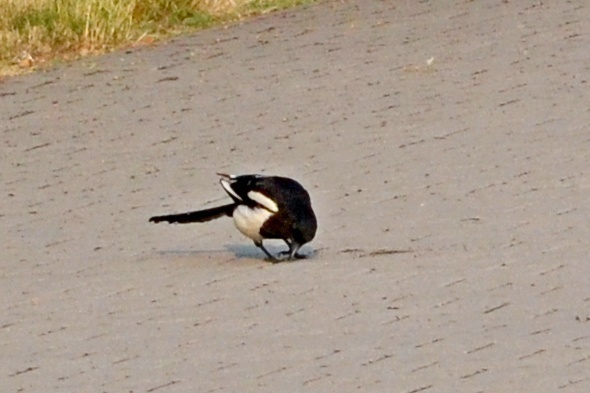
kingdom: Animalia
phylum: Chordata
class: Aves
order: Passeriformes
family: Corvidae
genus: Pica
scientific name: Pica pica
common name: Eurasian magpie
